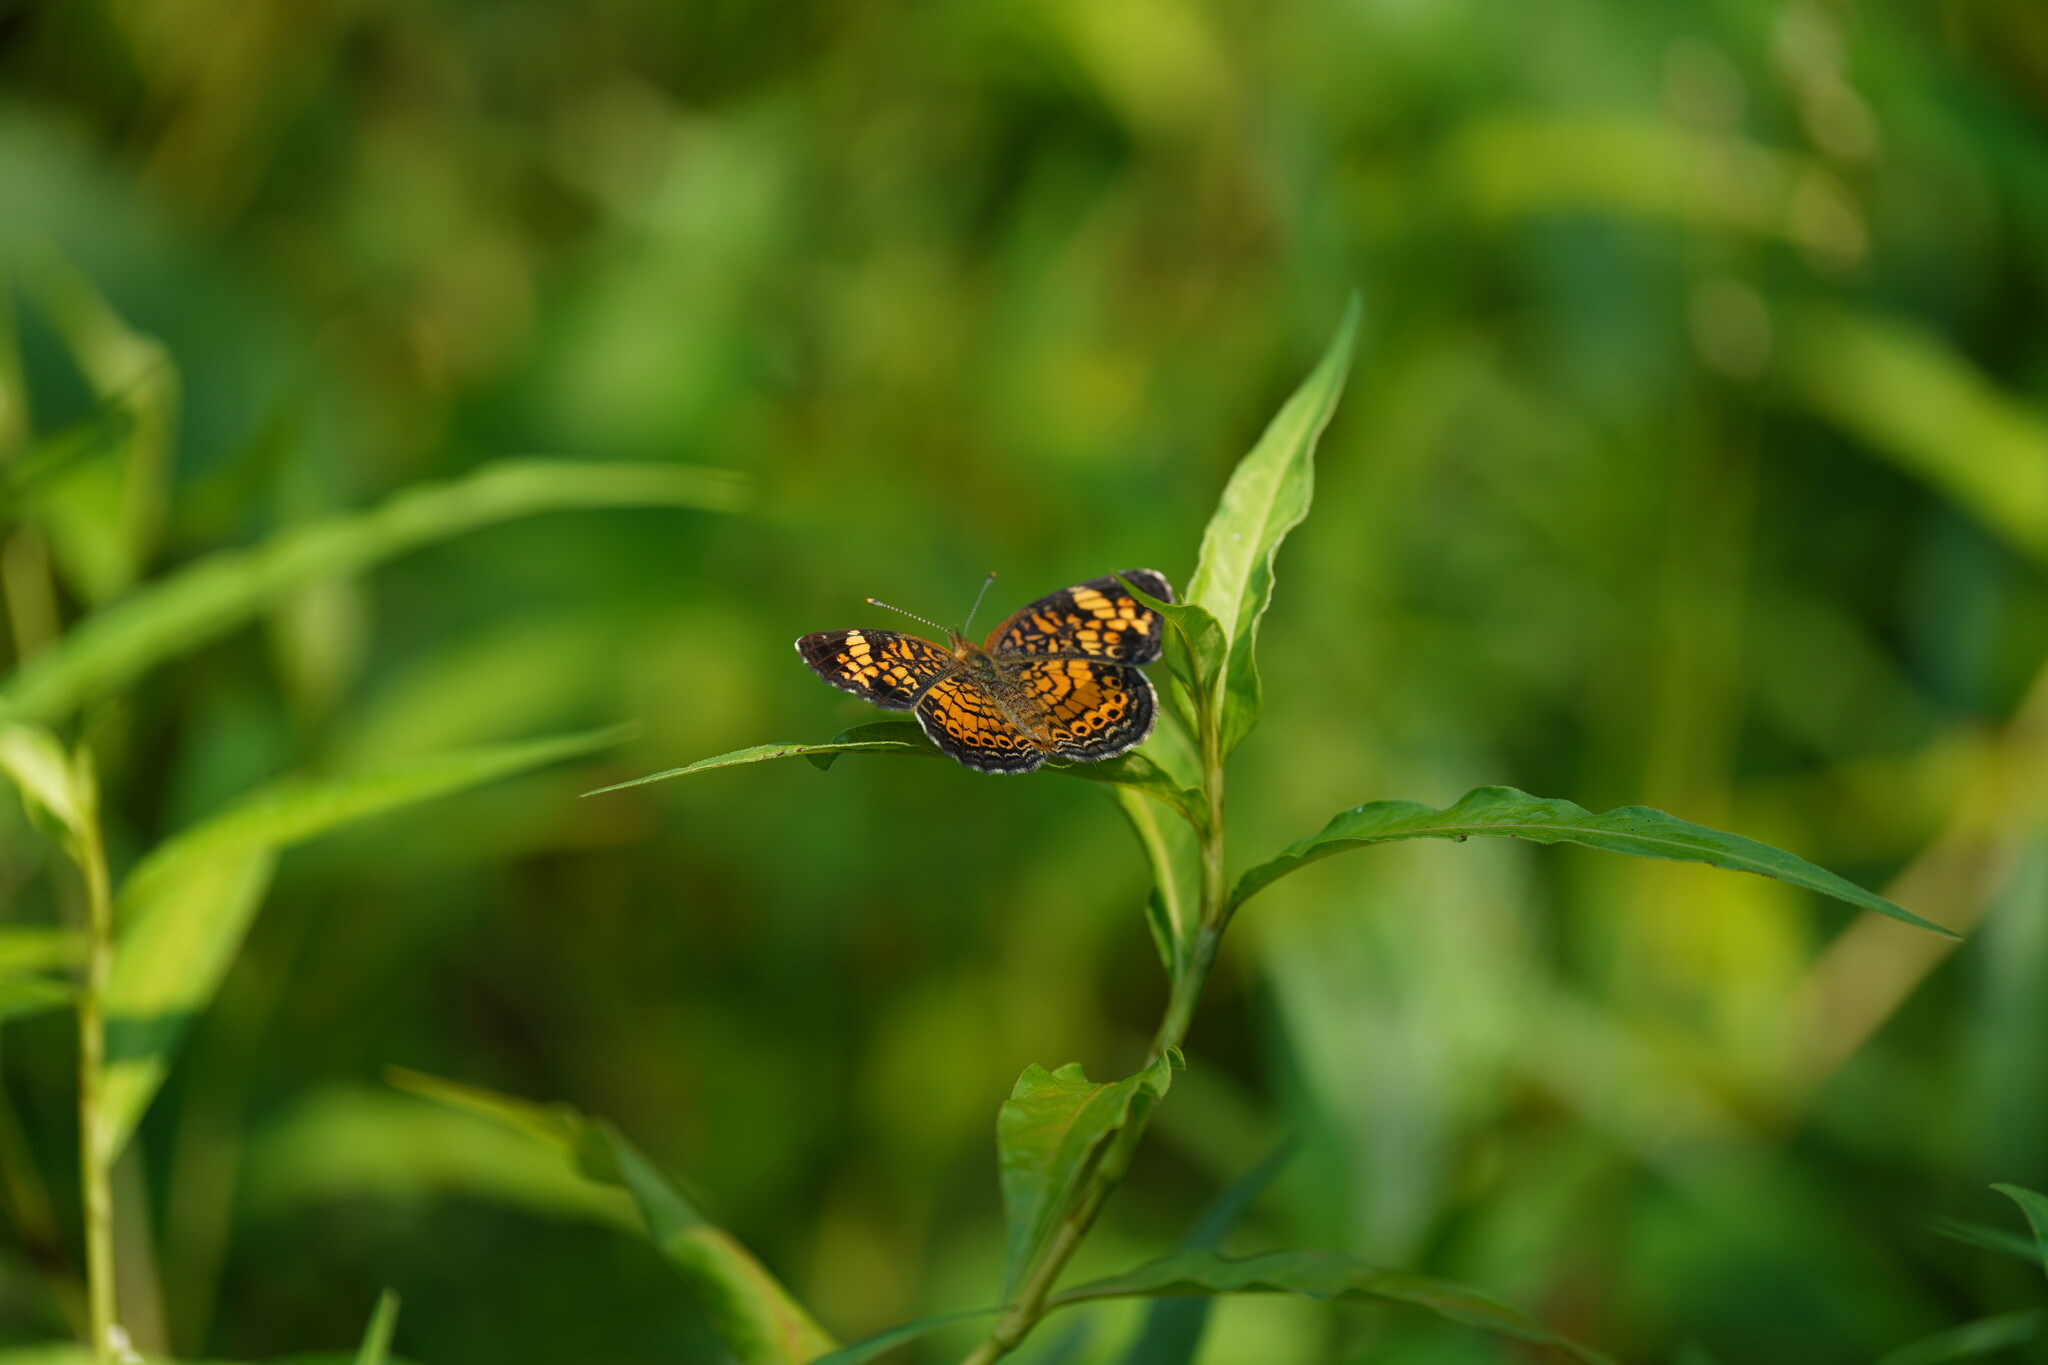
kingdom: Animalia
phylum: Arthropoda
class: Insecta
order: Lepidoptera
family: Nymphalidae
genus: Phyciodes
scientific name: Phyciodes tharos
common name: Pearl crescent
